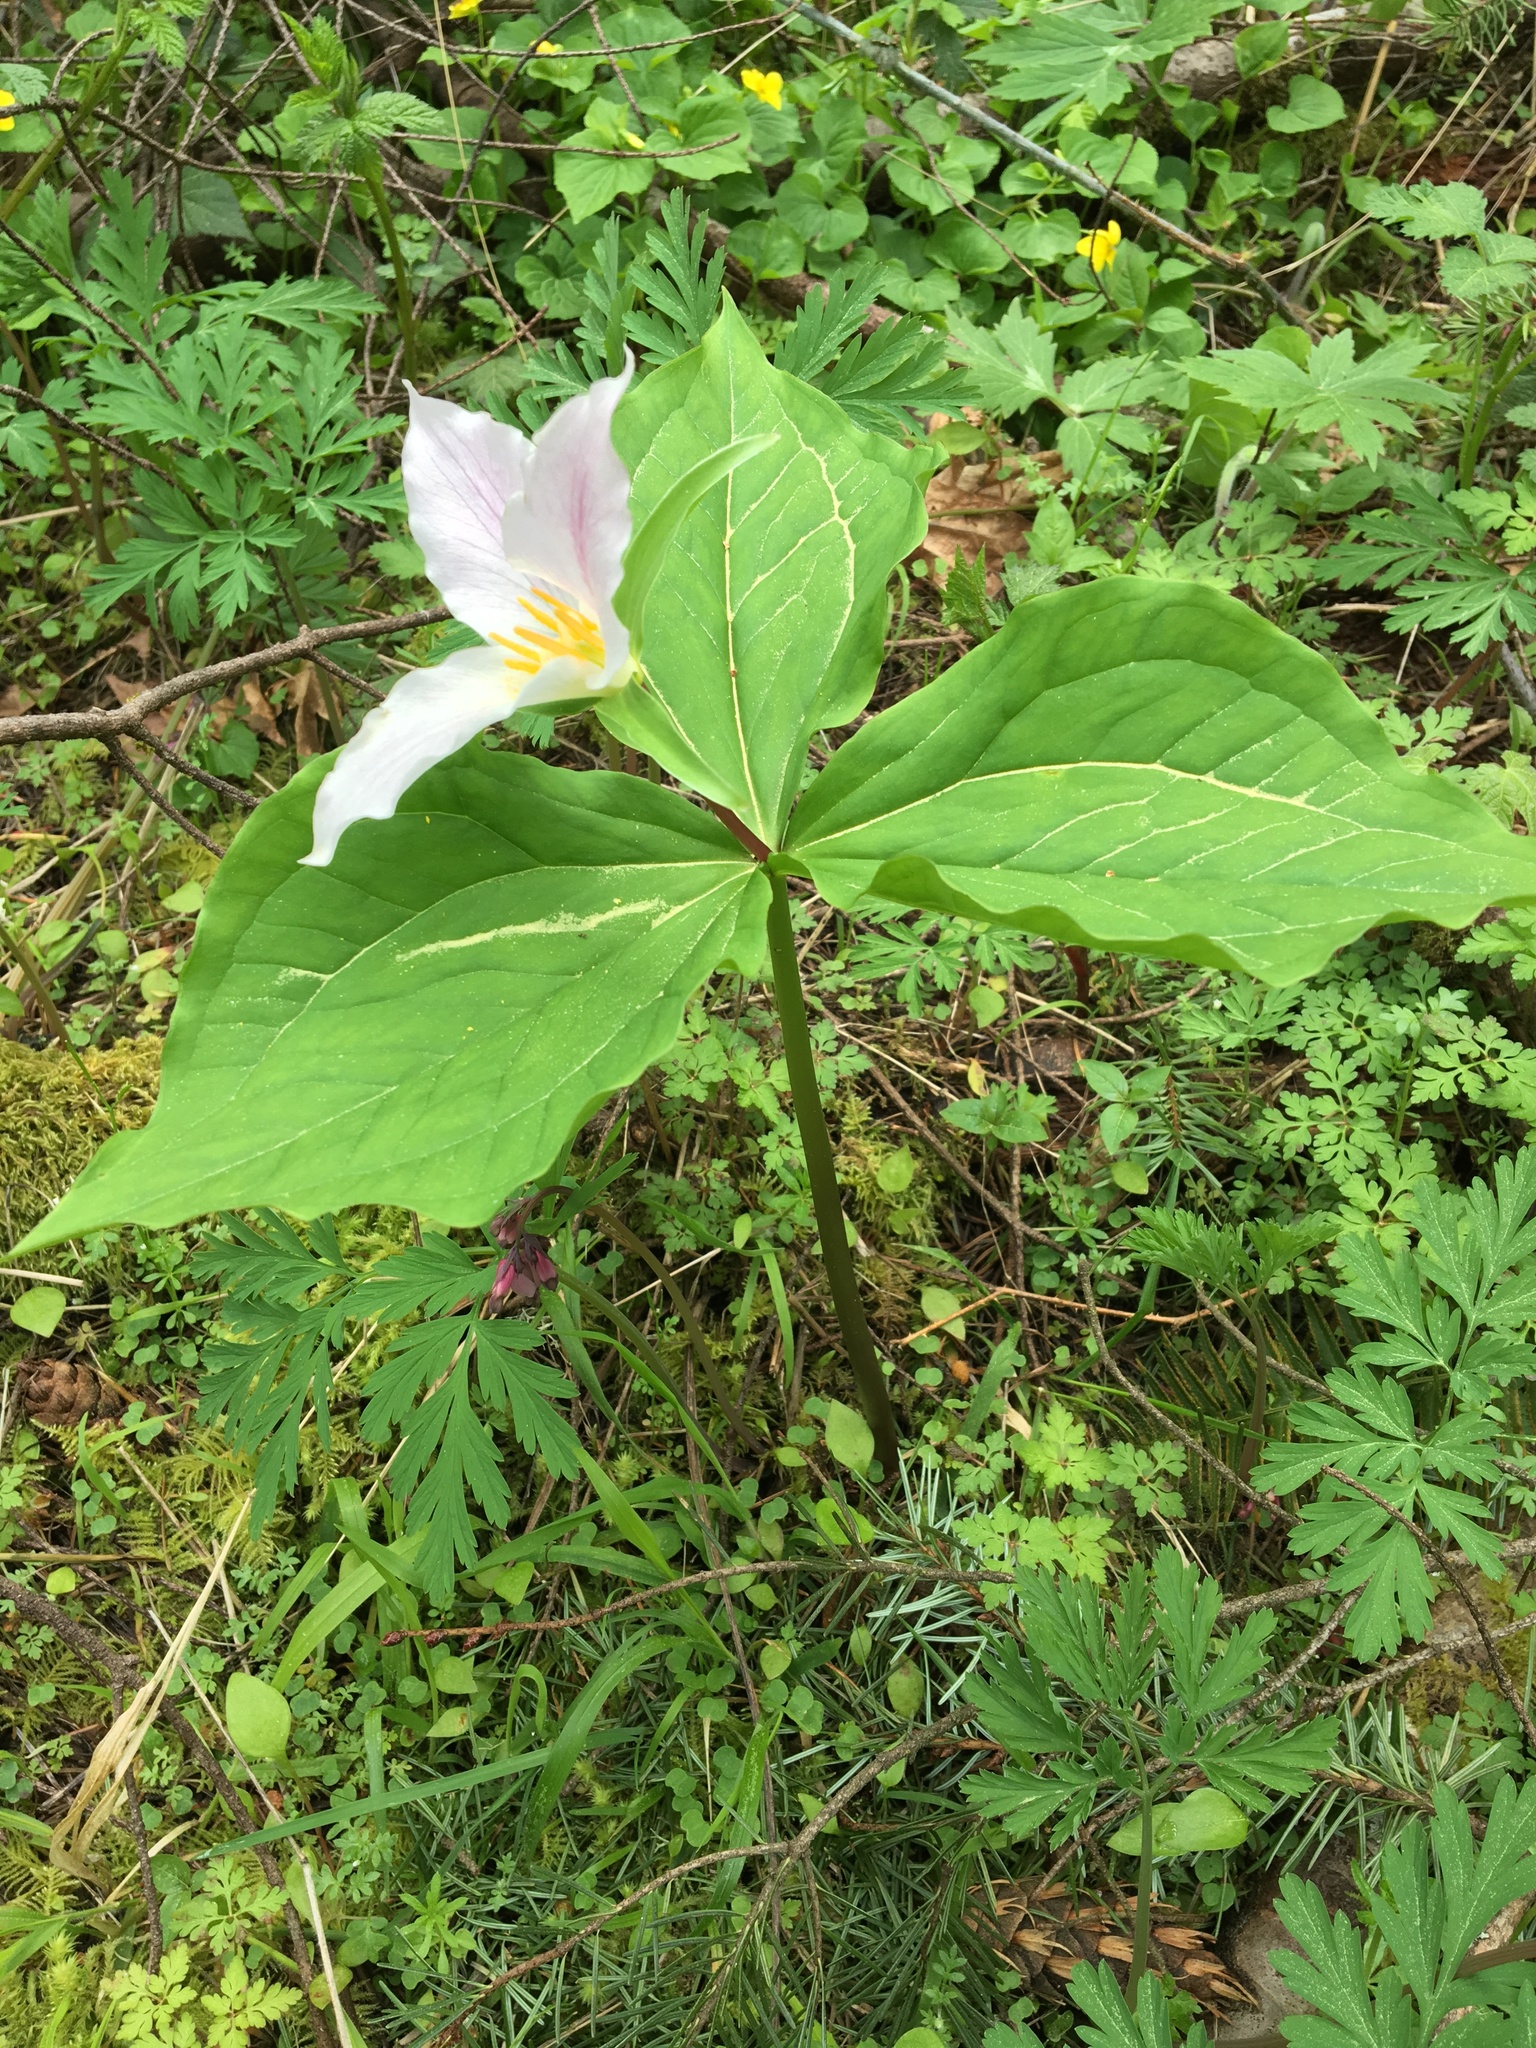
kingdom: Plantae
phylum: Tracheophyta
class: Liliopsida
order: Liliales
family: Melanthiaceae
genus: Trillium
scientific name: Trillium ovatum
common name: Pacific trillium
